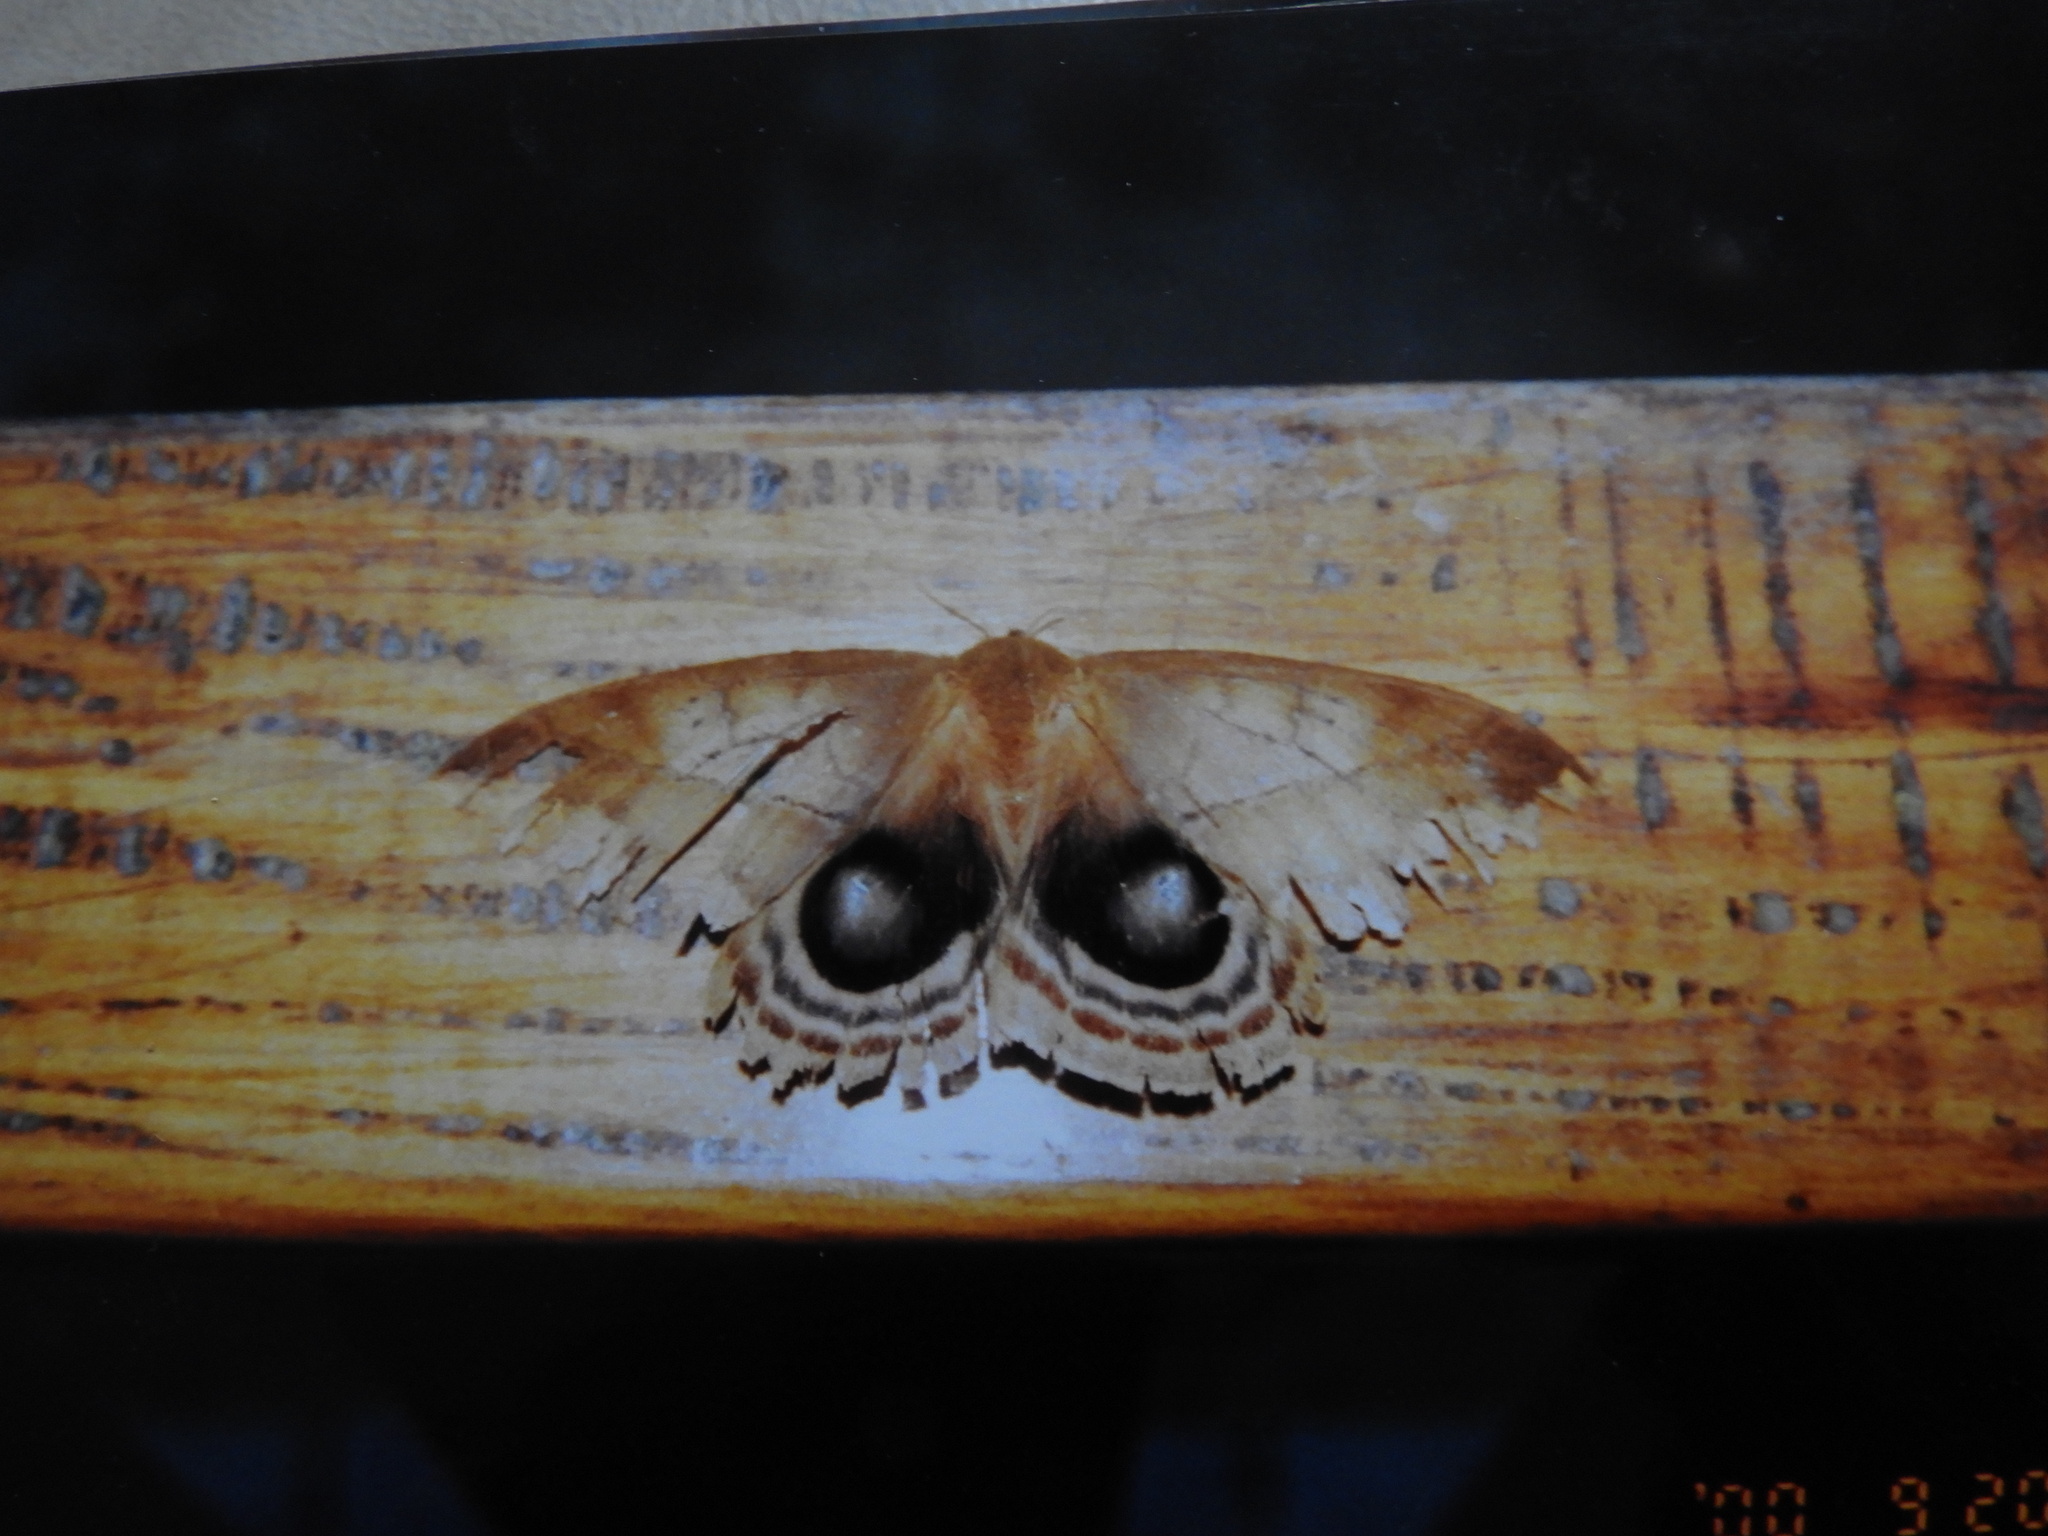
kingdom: Animalia
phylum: Arthropoda
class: Insecta
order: Lepidoptera
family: Saturniidae
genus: Automeris
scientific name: Automeris beckeri
